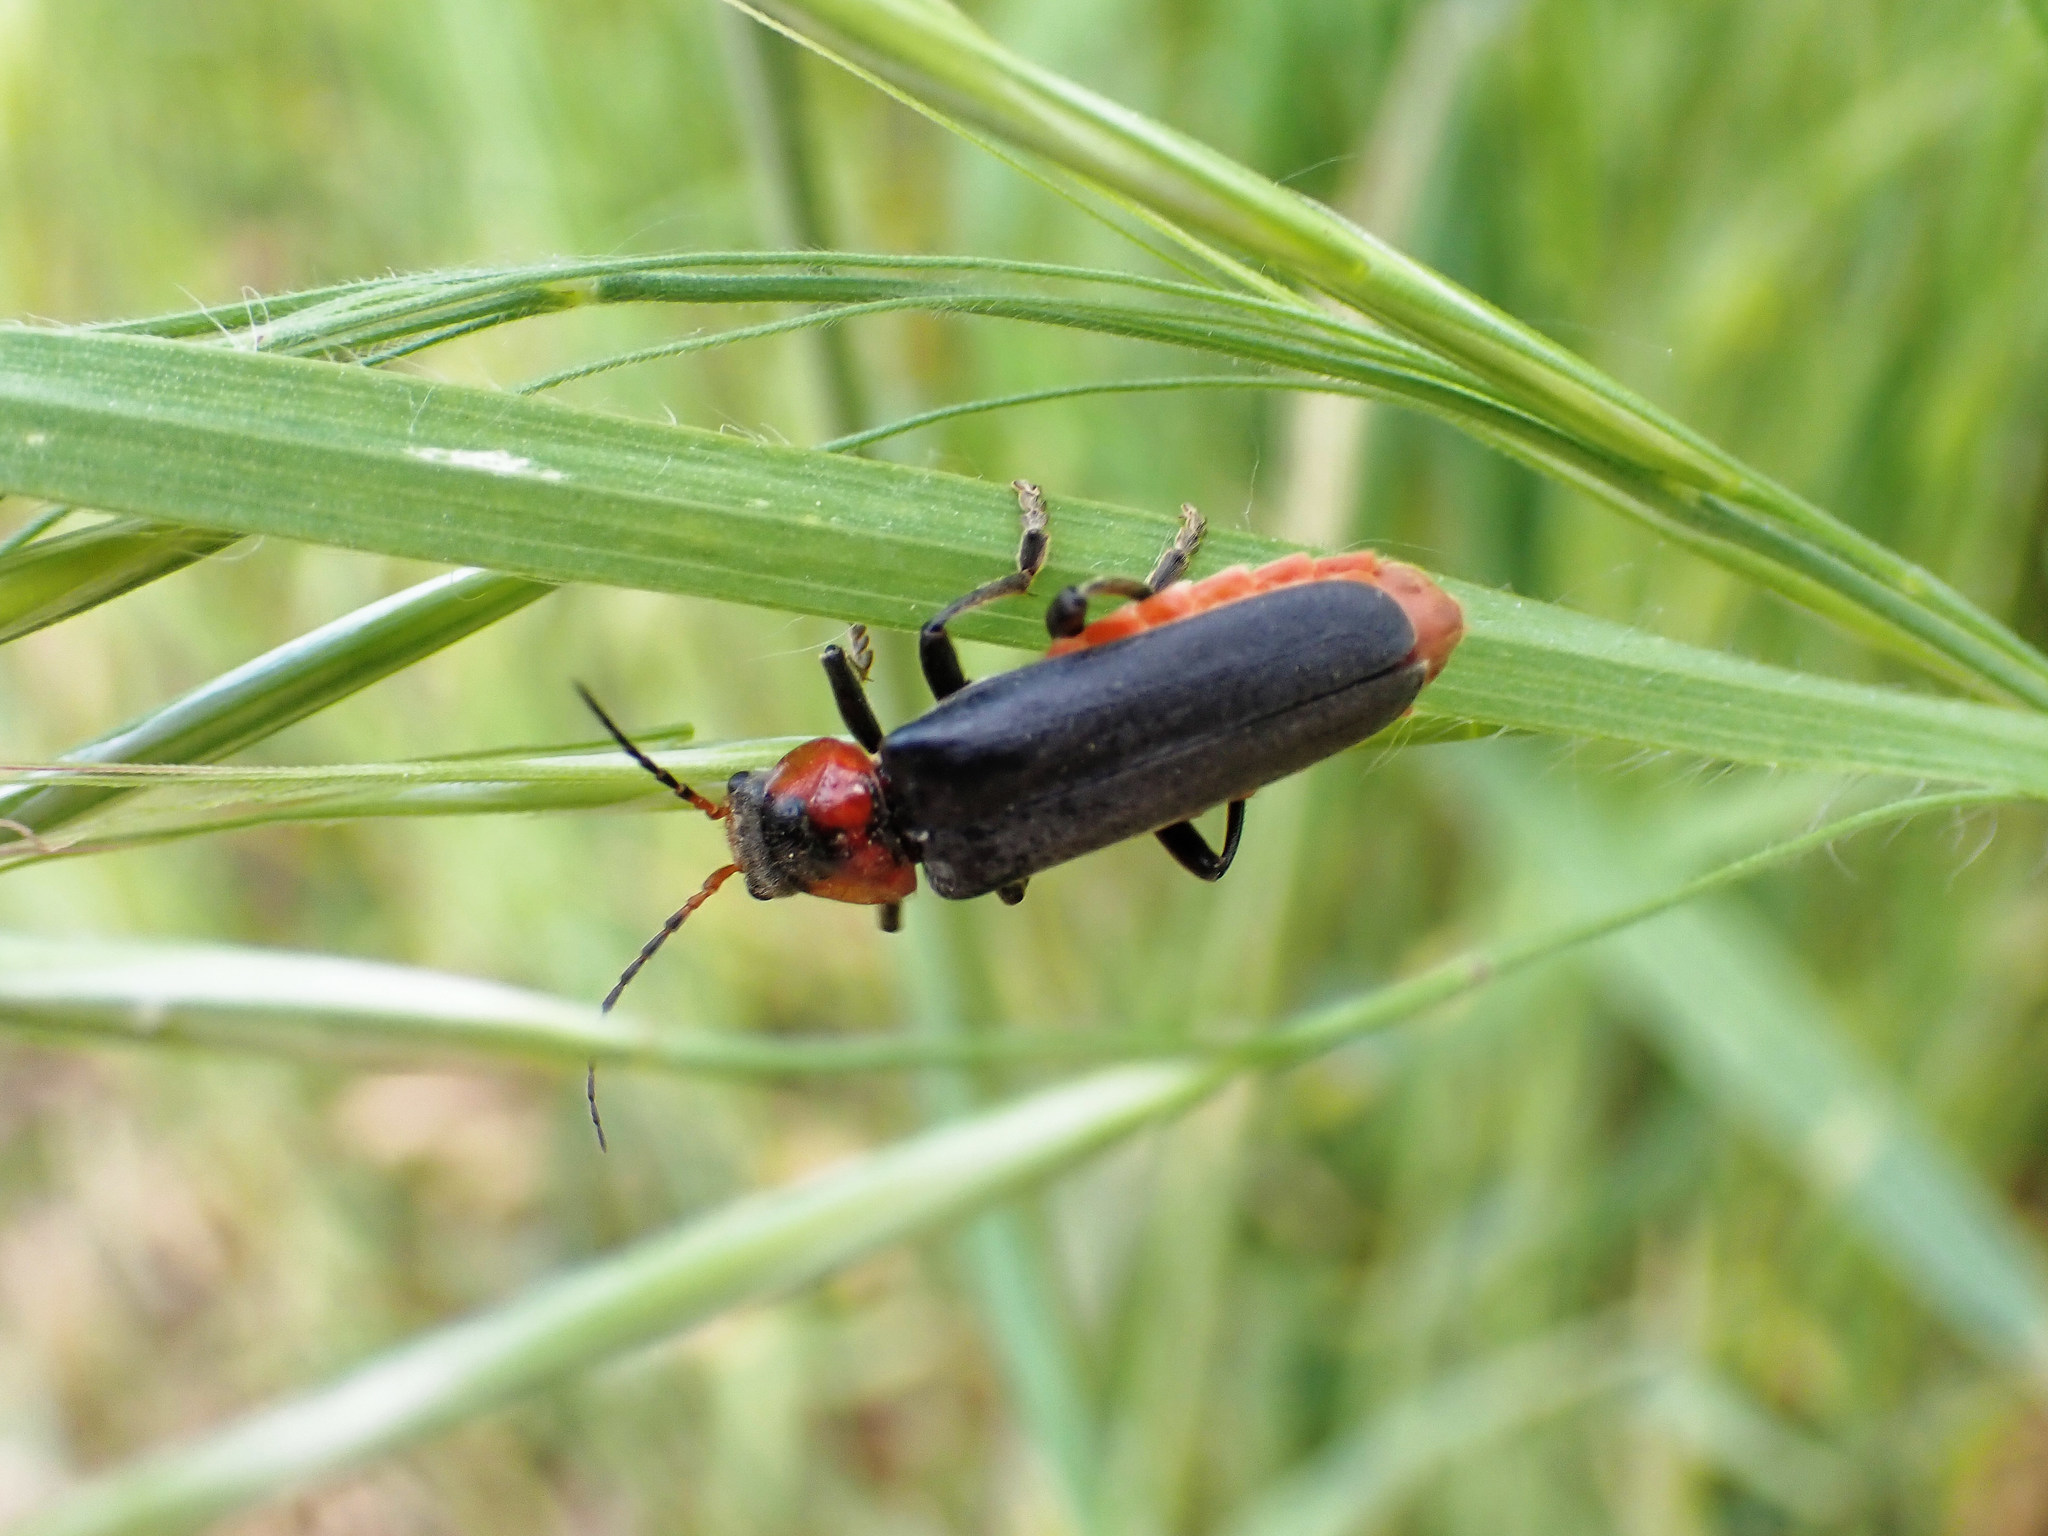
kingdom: Animalia
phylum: Arthropoda
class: Insecta
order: Coleoptera
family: Cantharidae
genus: Cantharis
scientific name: Cantharis fusca
